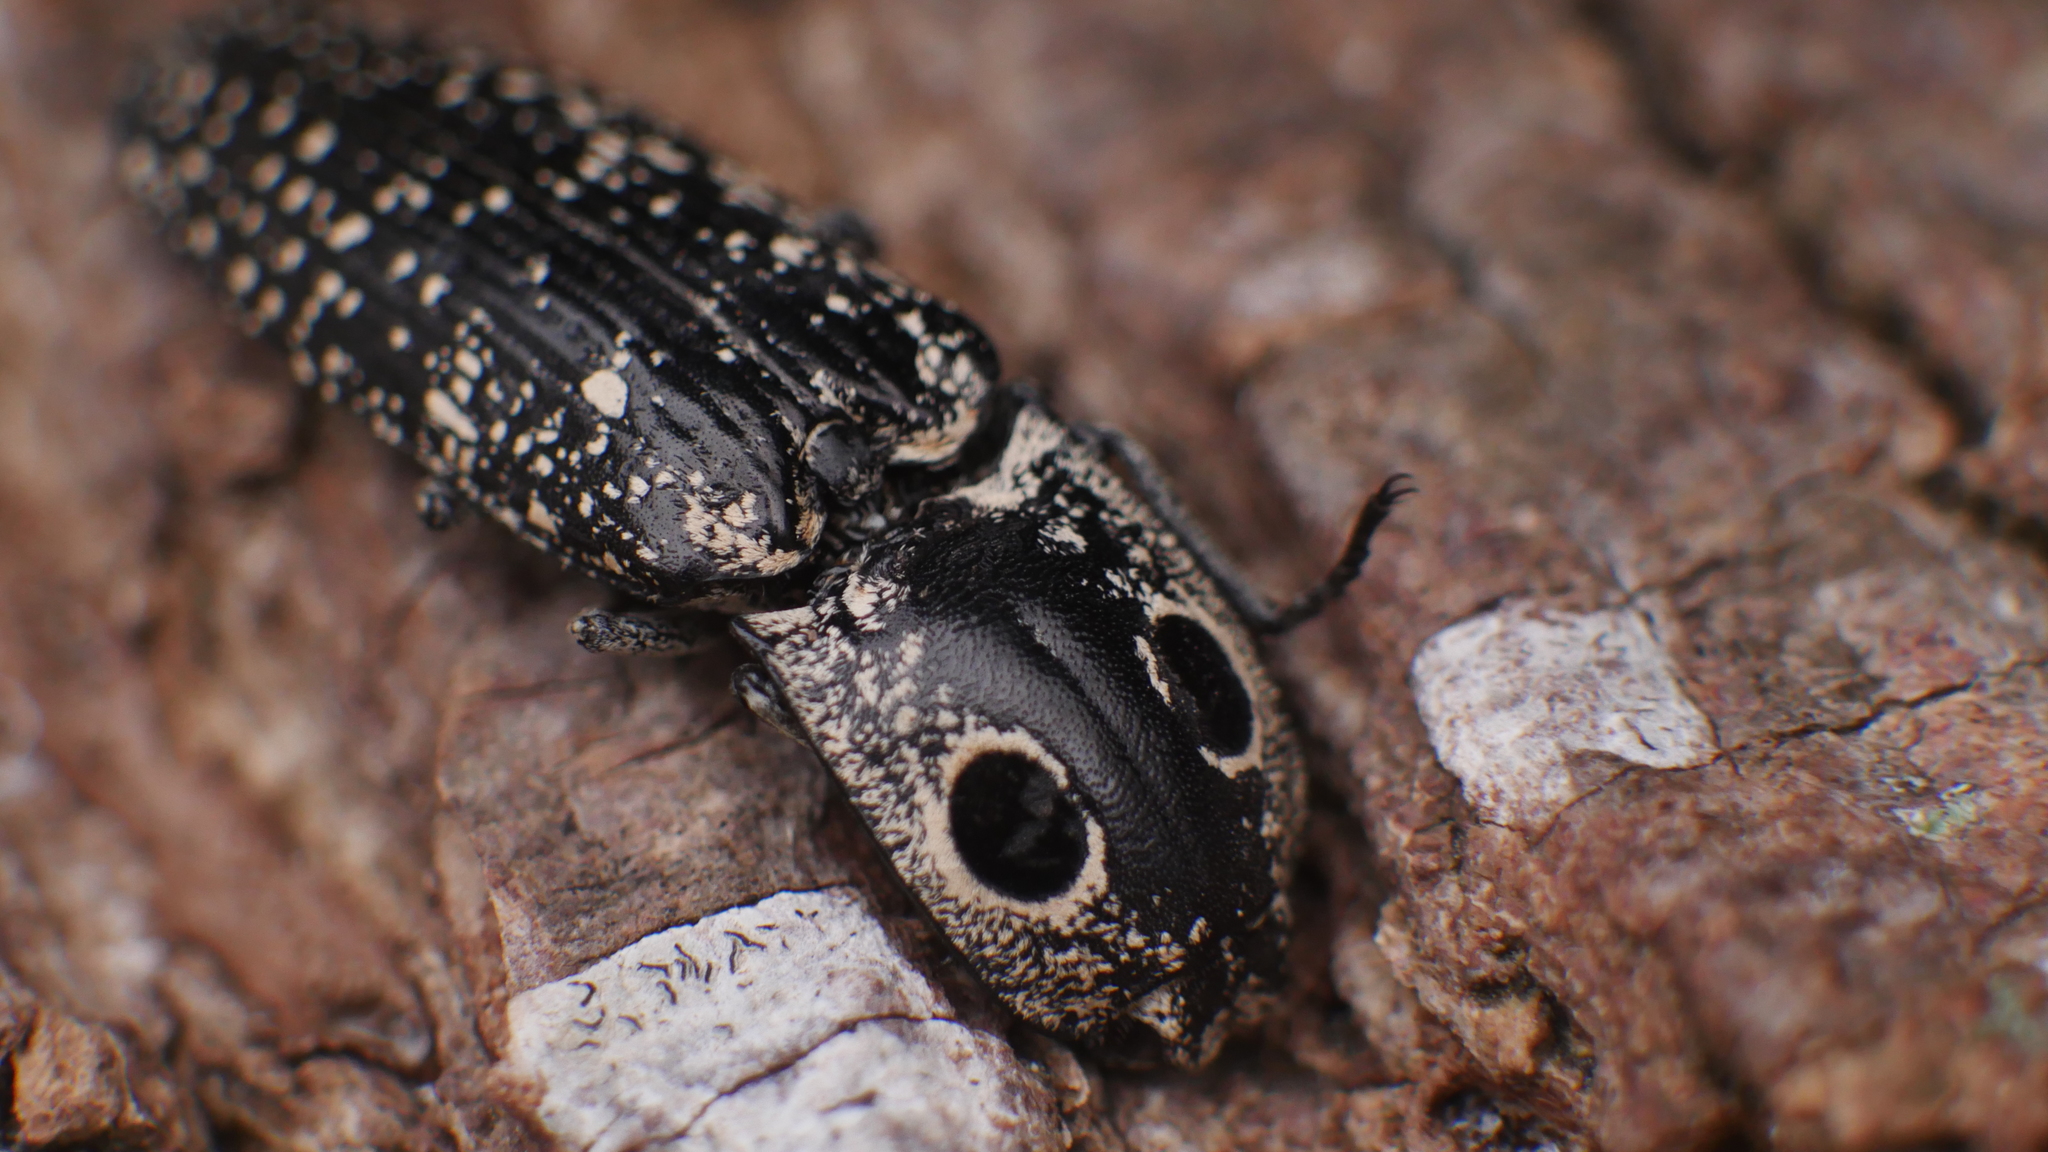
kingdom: Animalia
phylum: Arthropoda
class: Insecta
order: Coleoptera
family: Elateridae
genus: Alaus
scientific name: Alaus oculatus
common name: Eastern eyed click beetle
